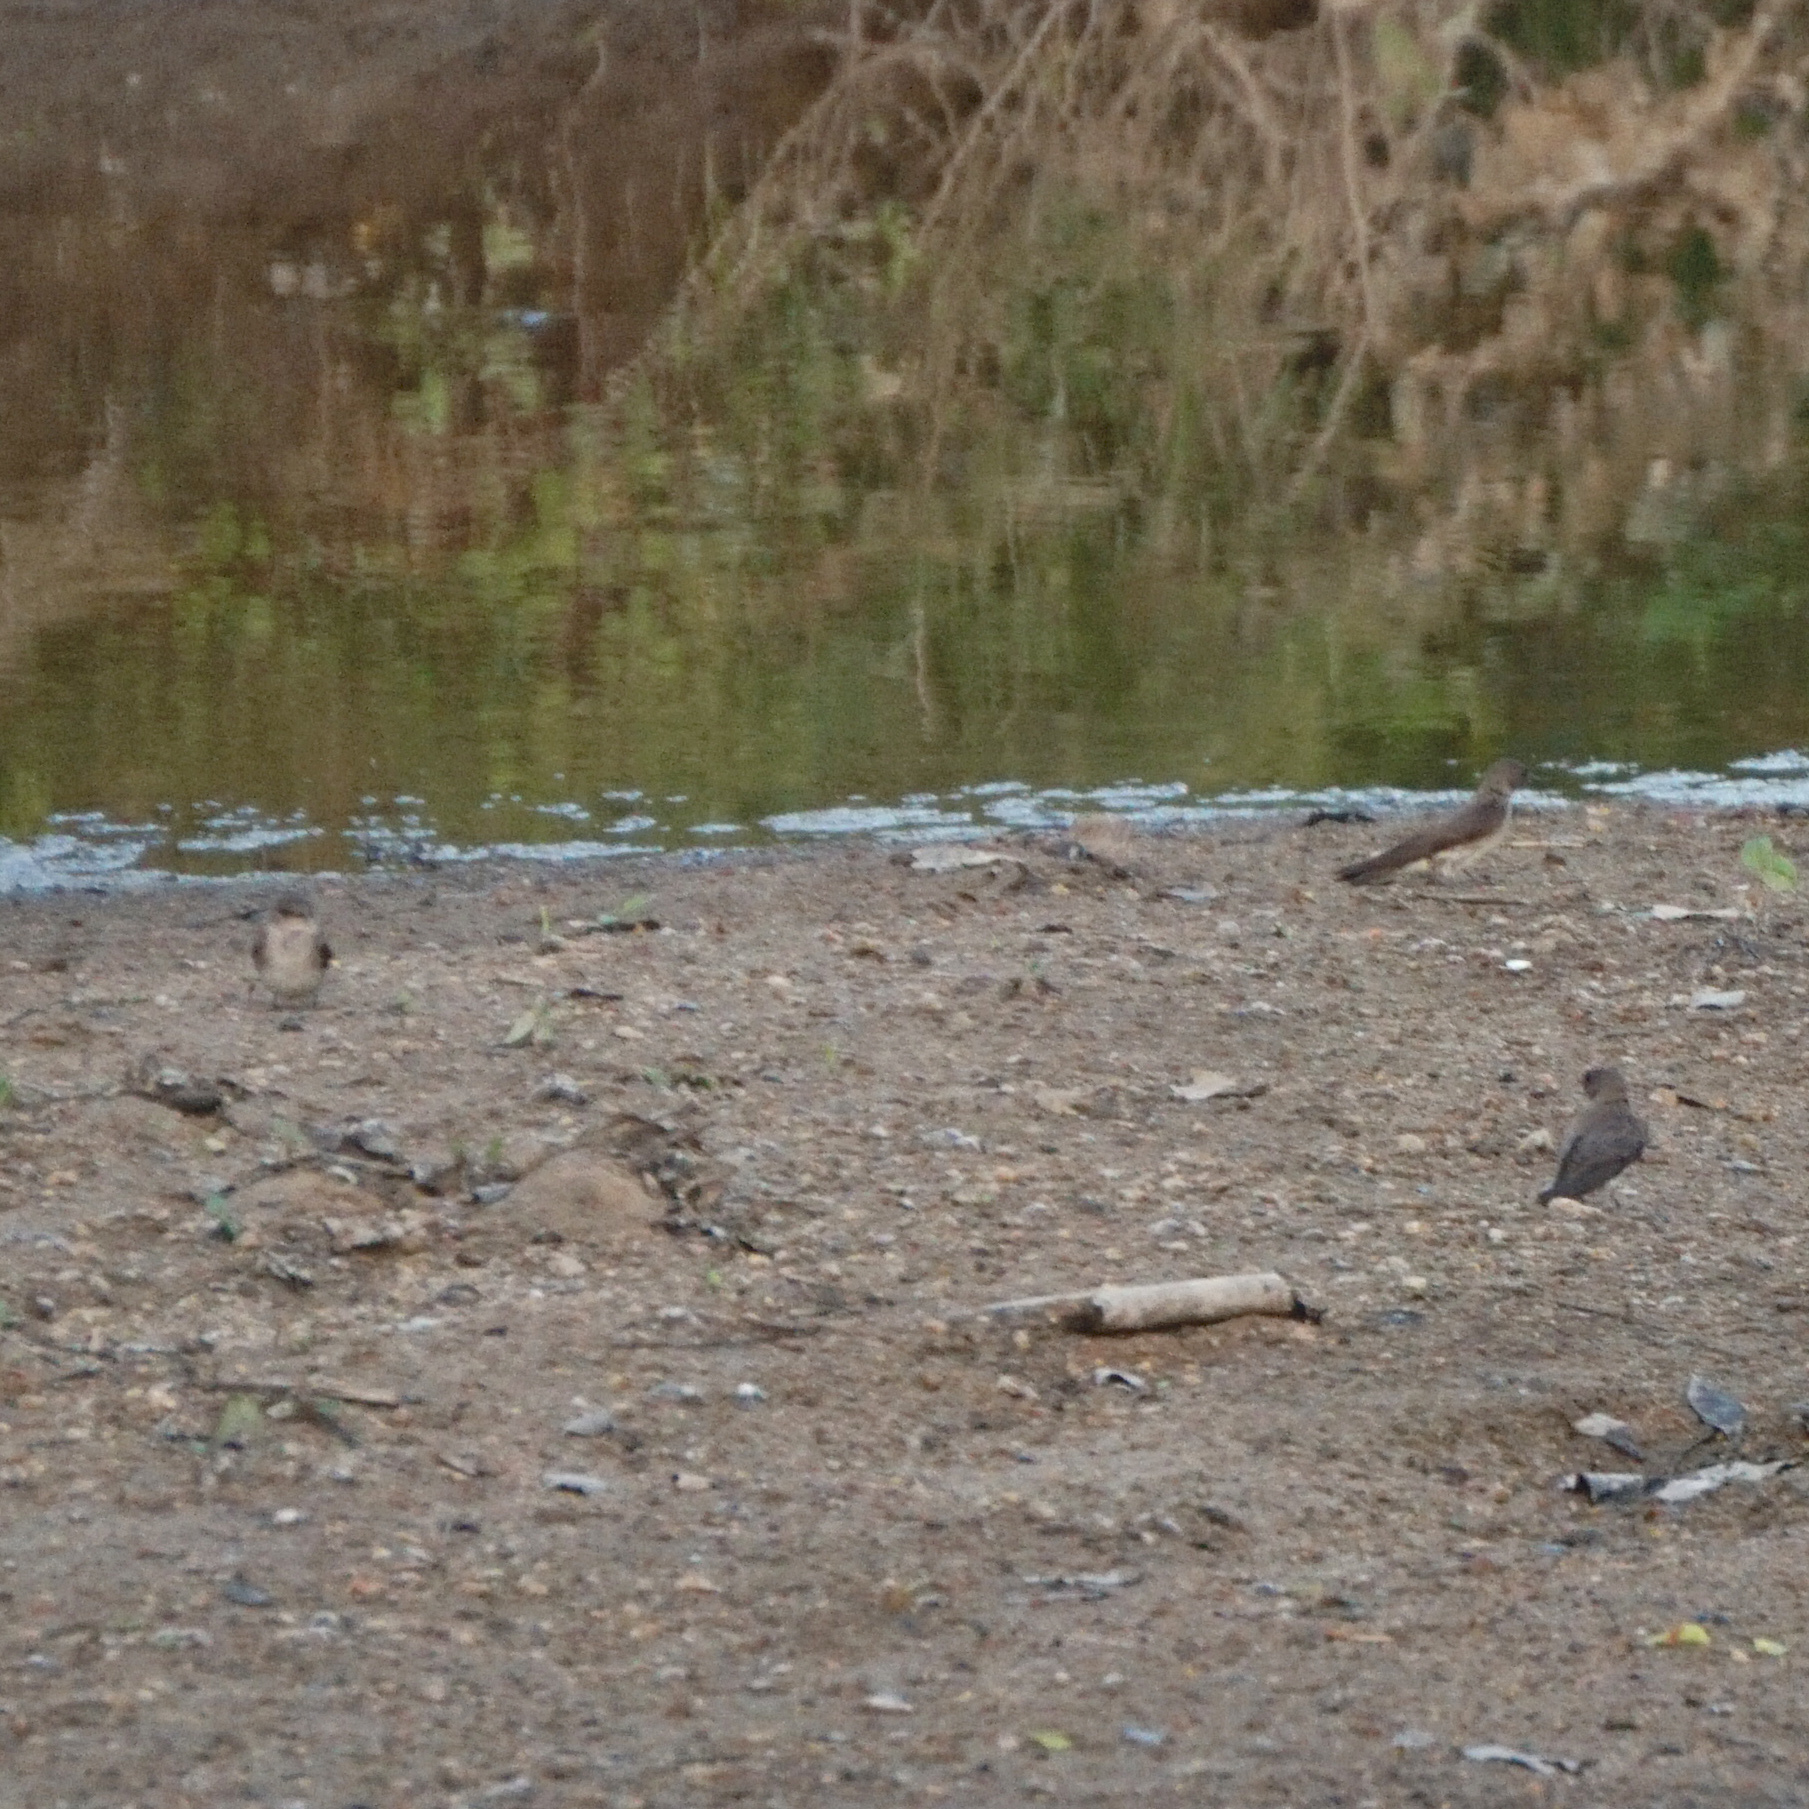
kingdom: Animalia
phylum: Chordata
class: Aves
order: Passeriformes
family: Hirundinidae
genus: Stelgidopteryx
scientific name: Stelgidopteryx serripennis
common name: Northern rough-winged swallow
